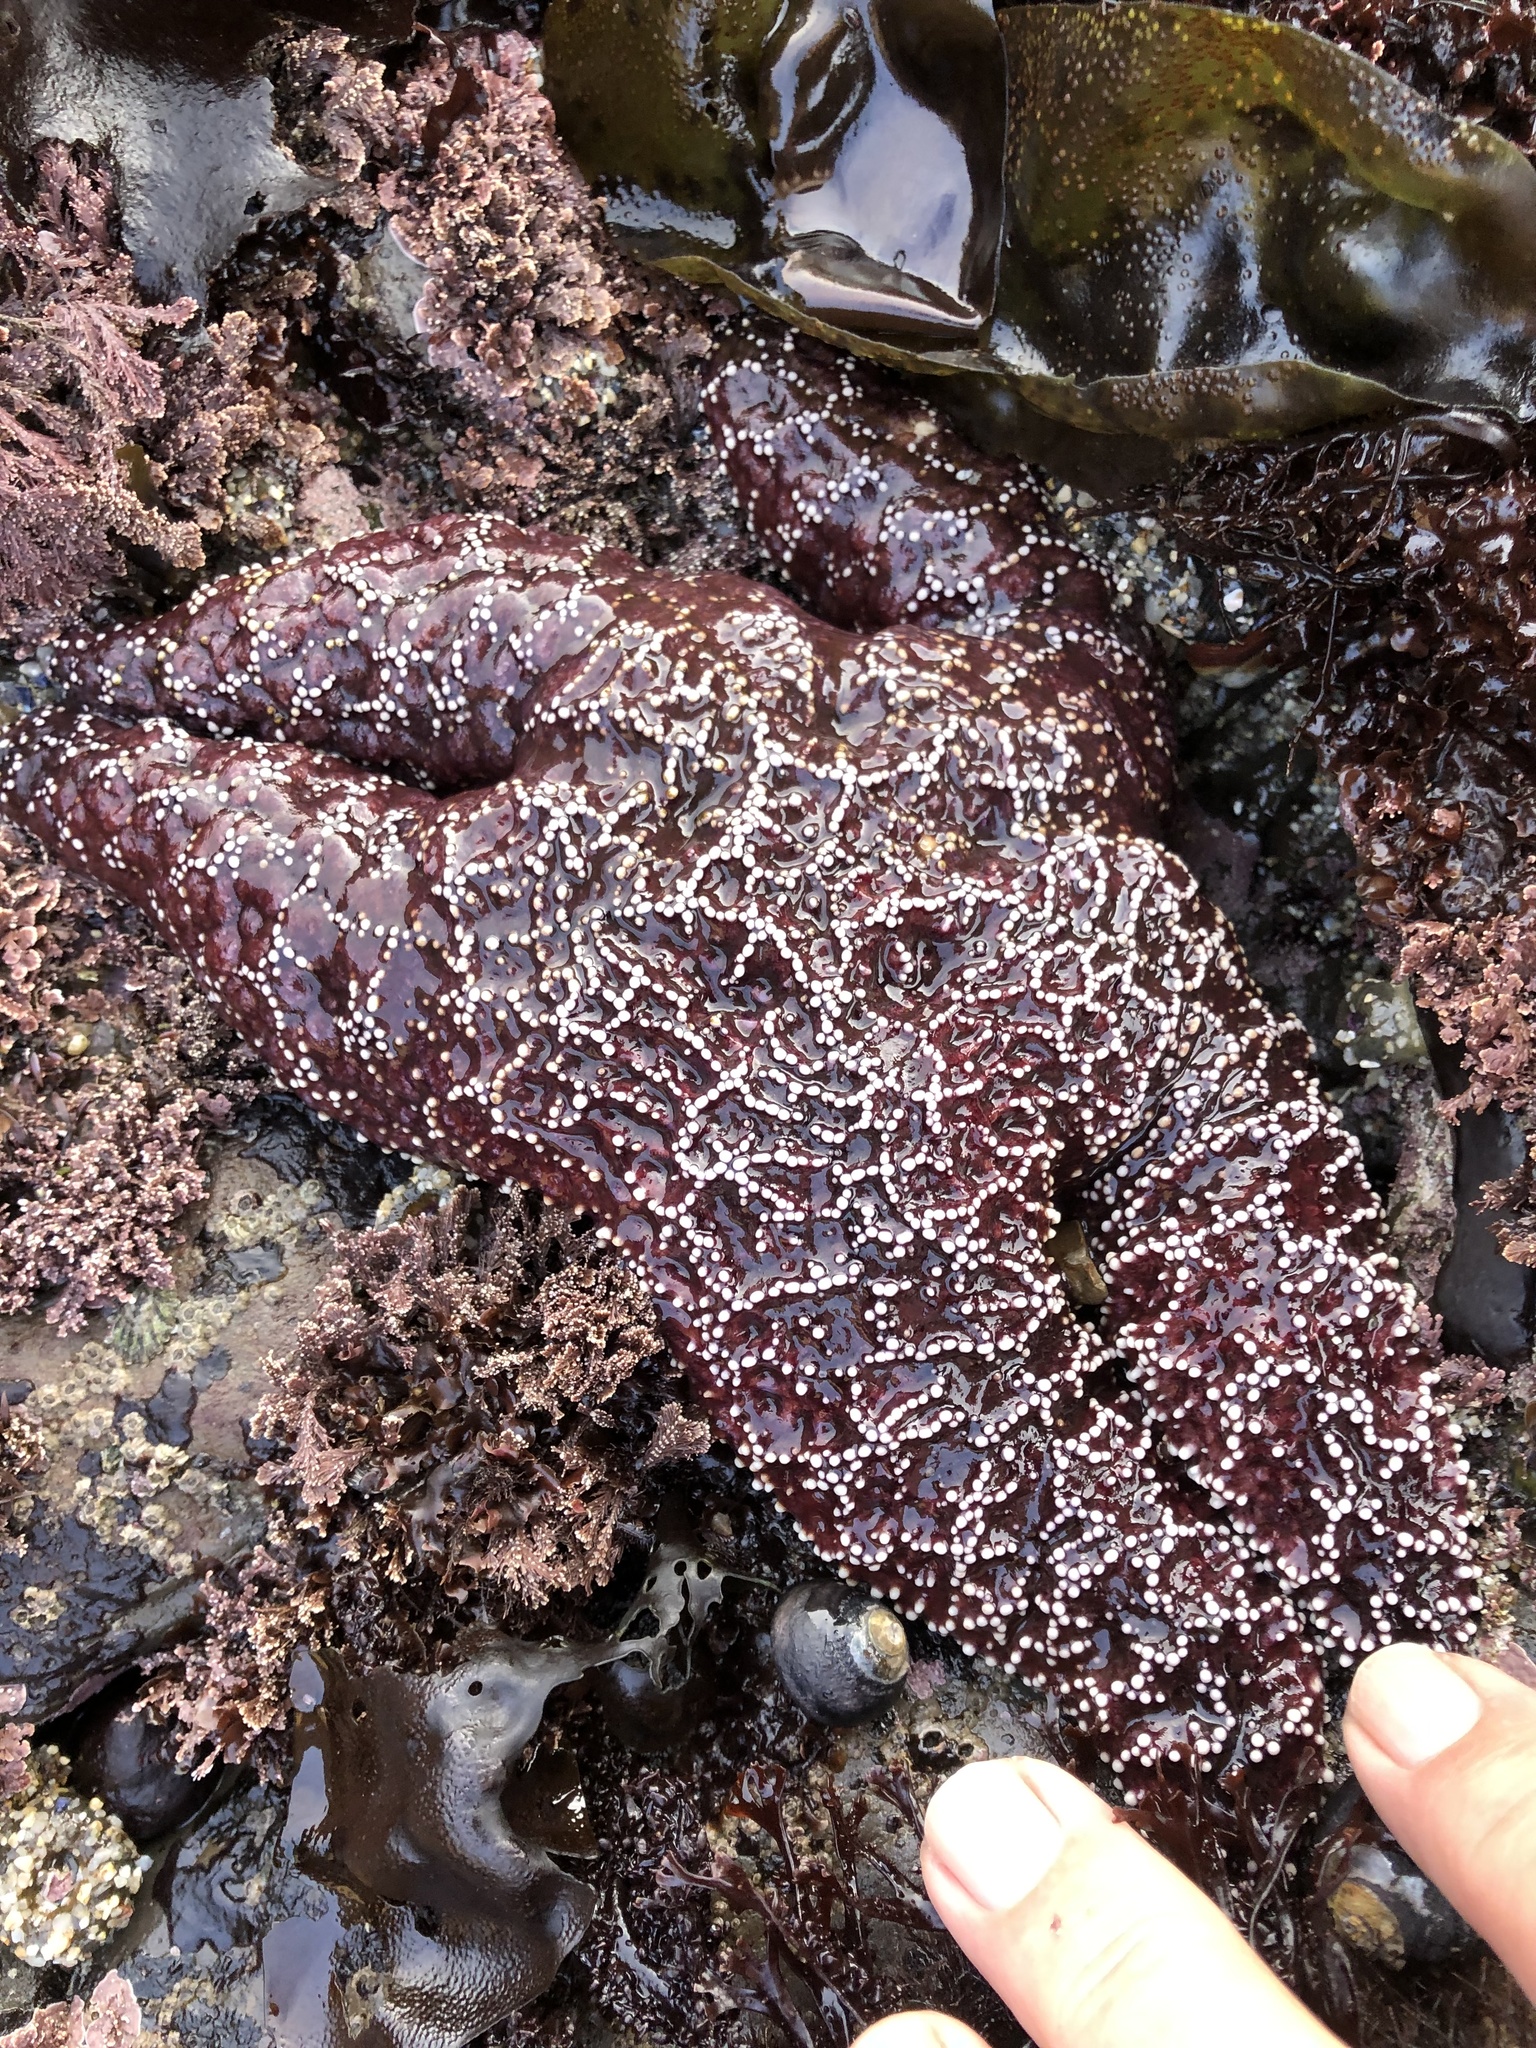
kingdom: Animalia
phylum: Echinodermata
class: Asteroidea
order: Forcipulatida
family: Asteriidae
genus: Pisaster
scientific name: Pisaster ochraceus
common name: Ochre stars
